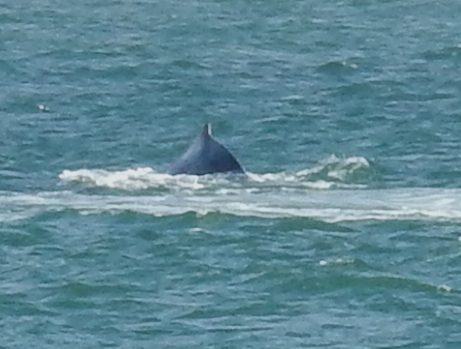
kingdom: Animalia
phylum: Chordata
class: Mammalia
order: Cetacea
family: Balaenopteridae
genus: Megaptera
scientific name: Megaptera novaeangliae
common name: Humpback whale
